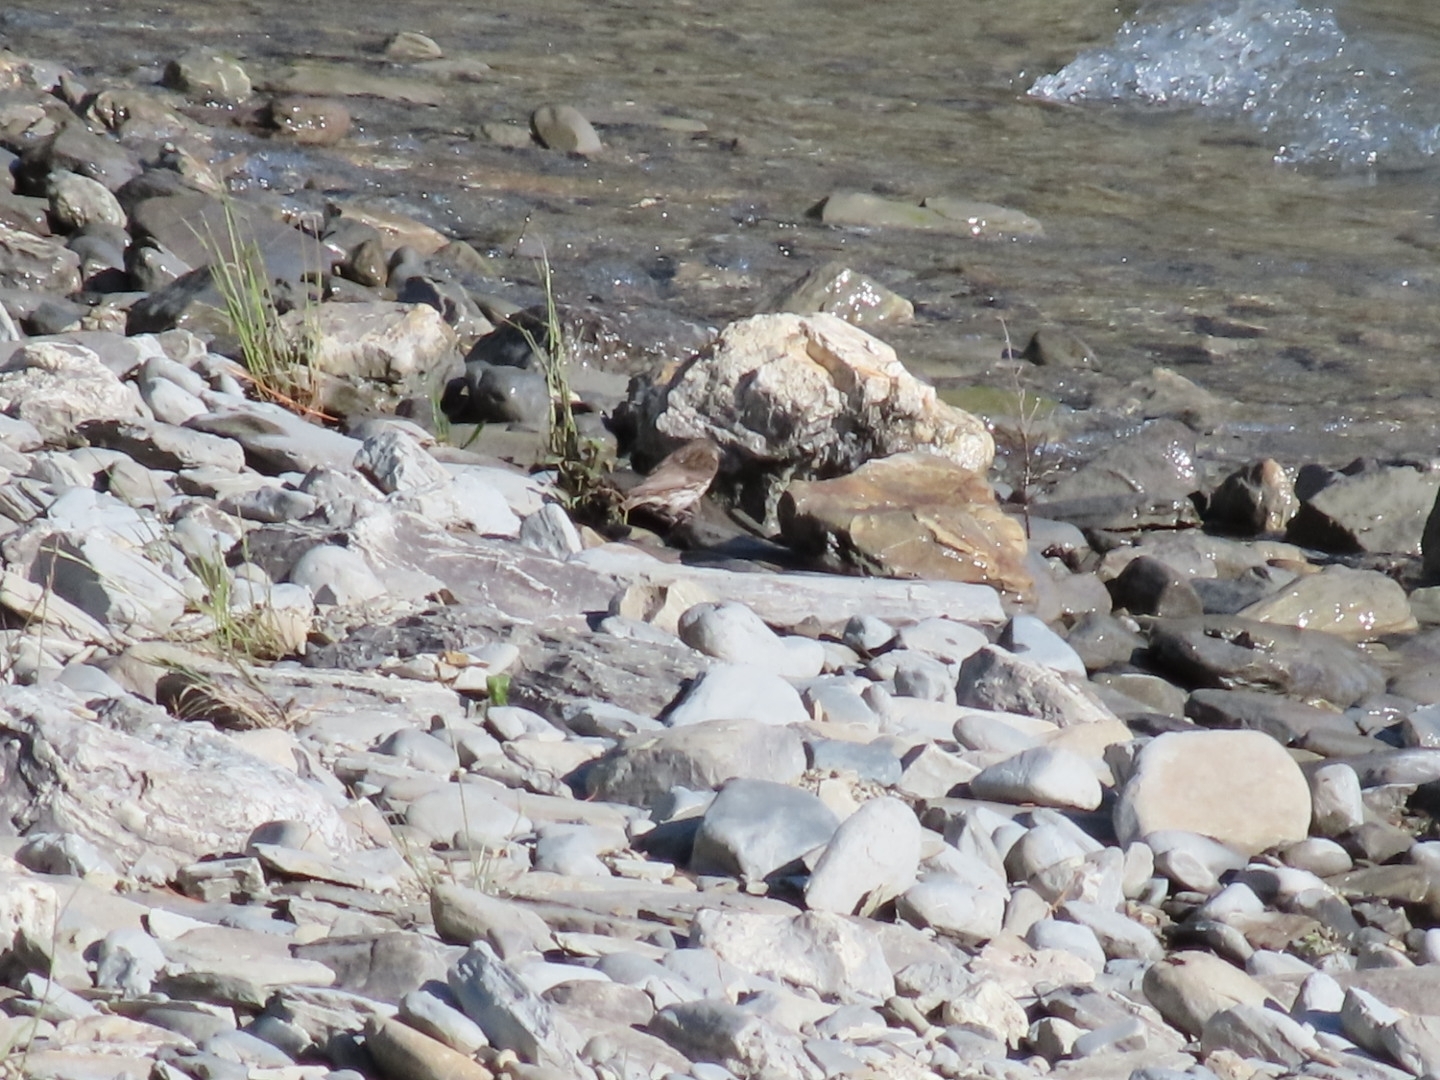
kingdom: Animalia
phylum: Chordata
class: Aves
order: Passeriformes
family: Fringillidae
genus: Acanthis
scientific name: Acanthis flammea
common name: Common redpoll
